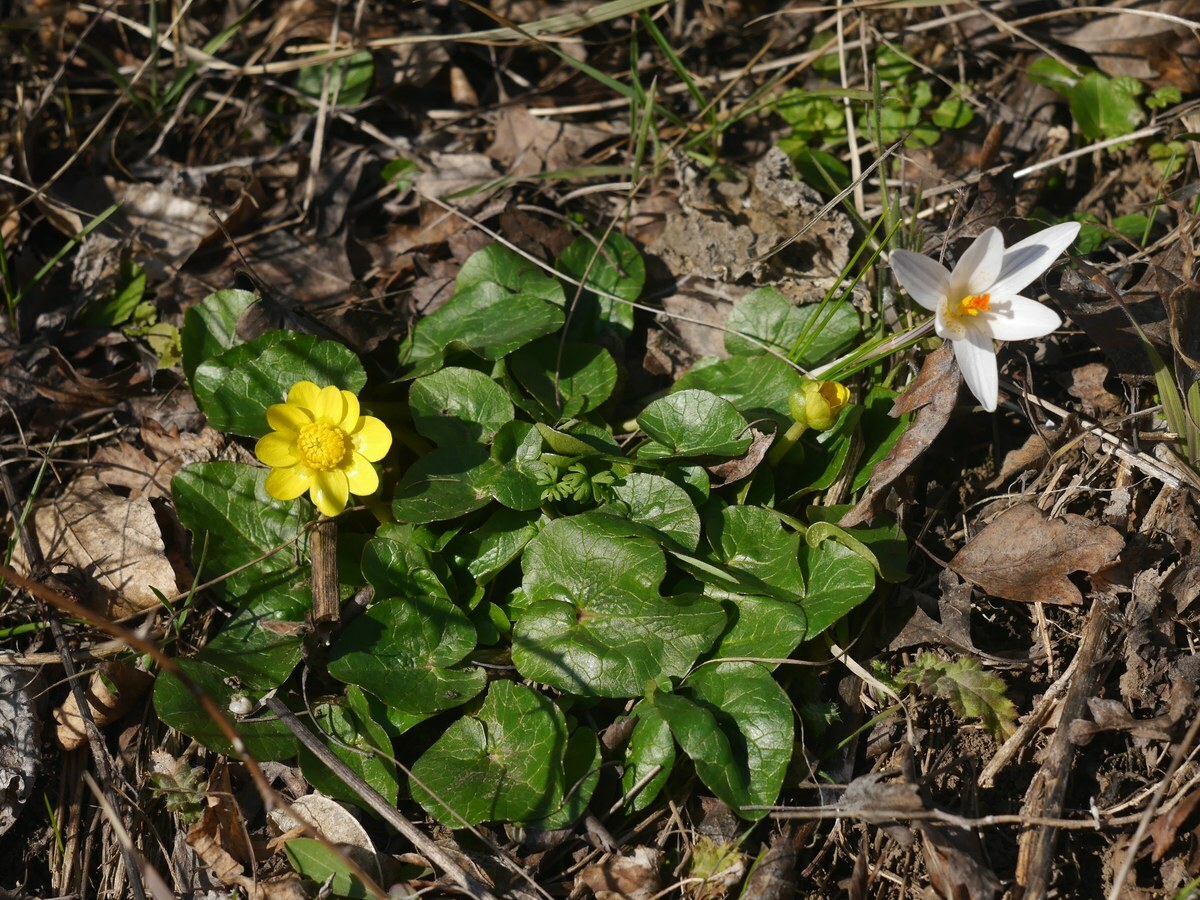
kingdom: Plantae
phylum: Tracheophyta
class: Magnoliopsida
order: Ranunculales
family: Ranunculaceae
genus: Ficaria
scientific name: Ficaria verna
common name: Lesser celandine
